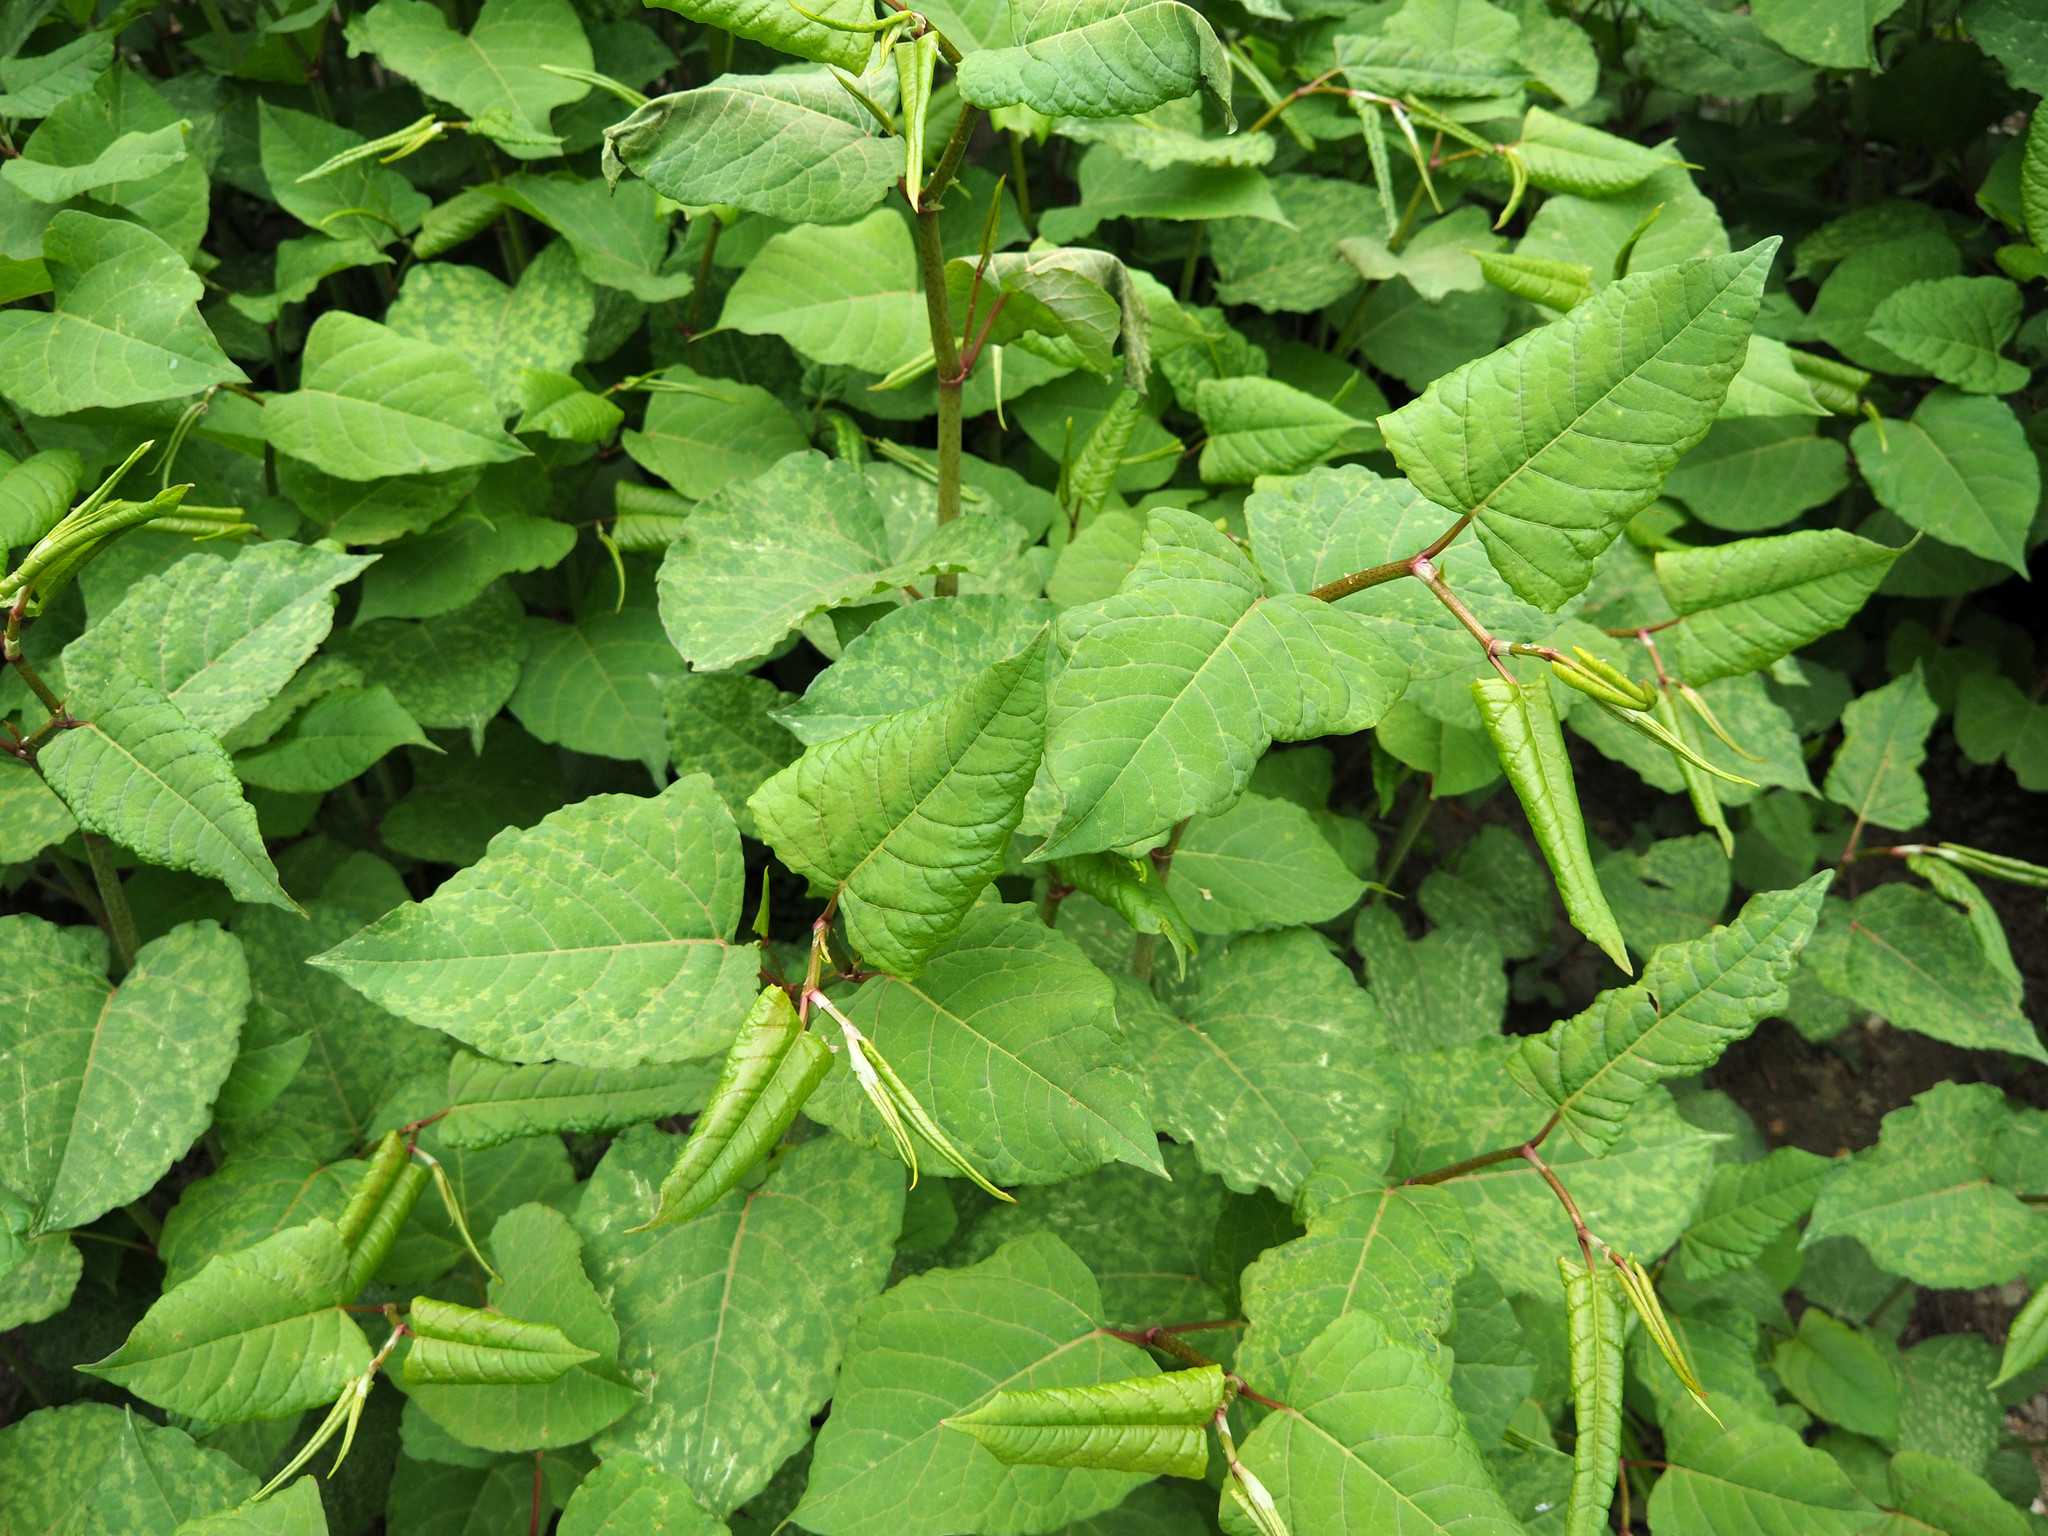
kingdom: Plantae
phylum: Tracheophyta
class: Magnoliopsida
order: Caryophyllales
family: Polygonaceae
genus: Reynoutria
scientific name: Reynoutria japonica
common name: Japanese knotweed
